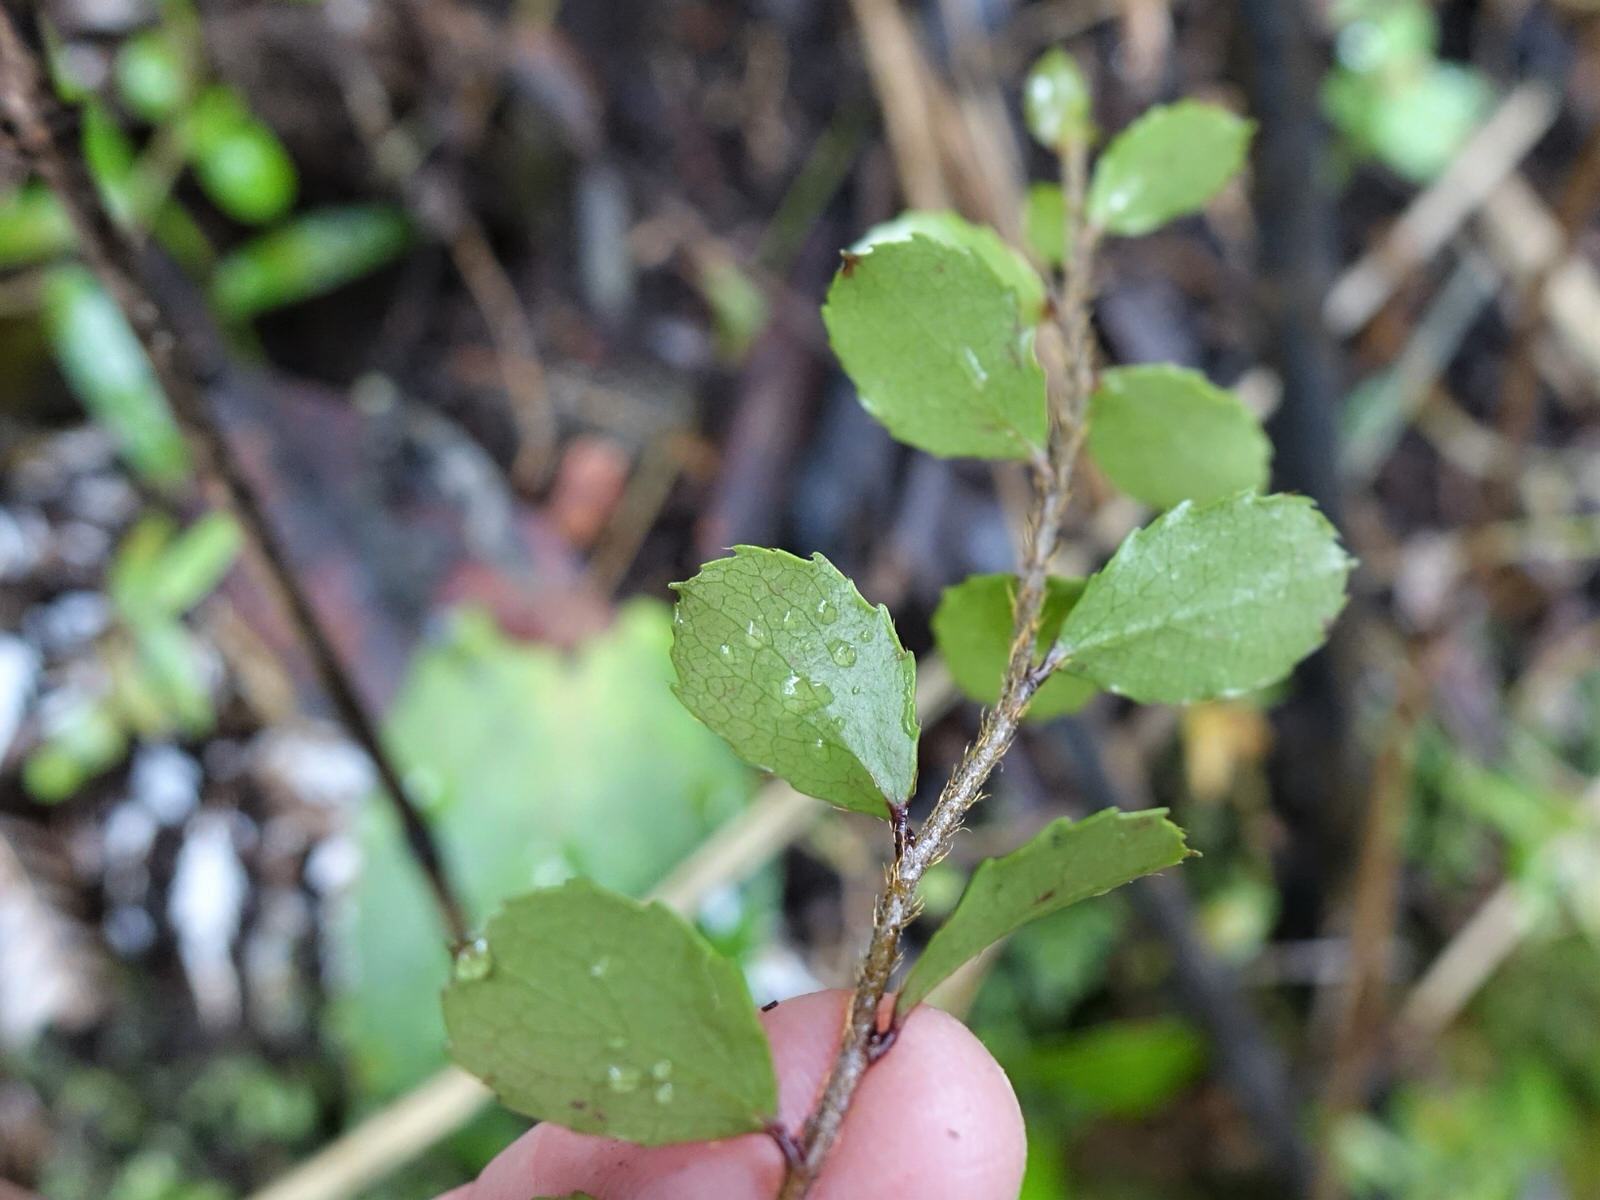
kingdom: Plantae
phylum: Tracheophyta
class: Magnoliopsida
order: Ericales
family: Ericaceae
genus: Gaultheria
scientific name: Gaultheria antipoda
